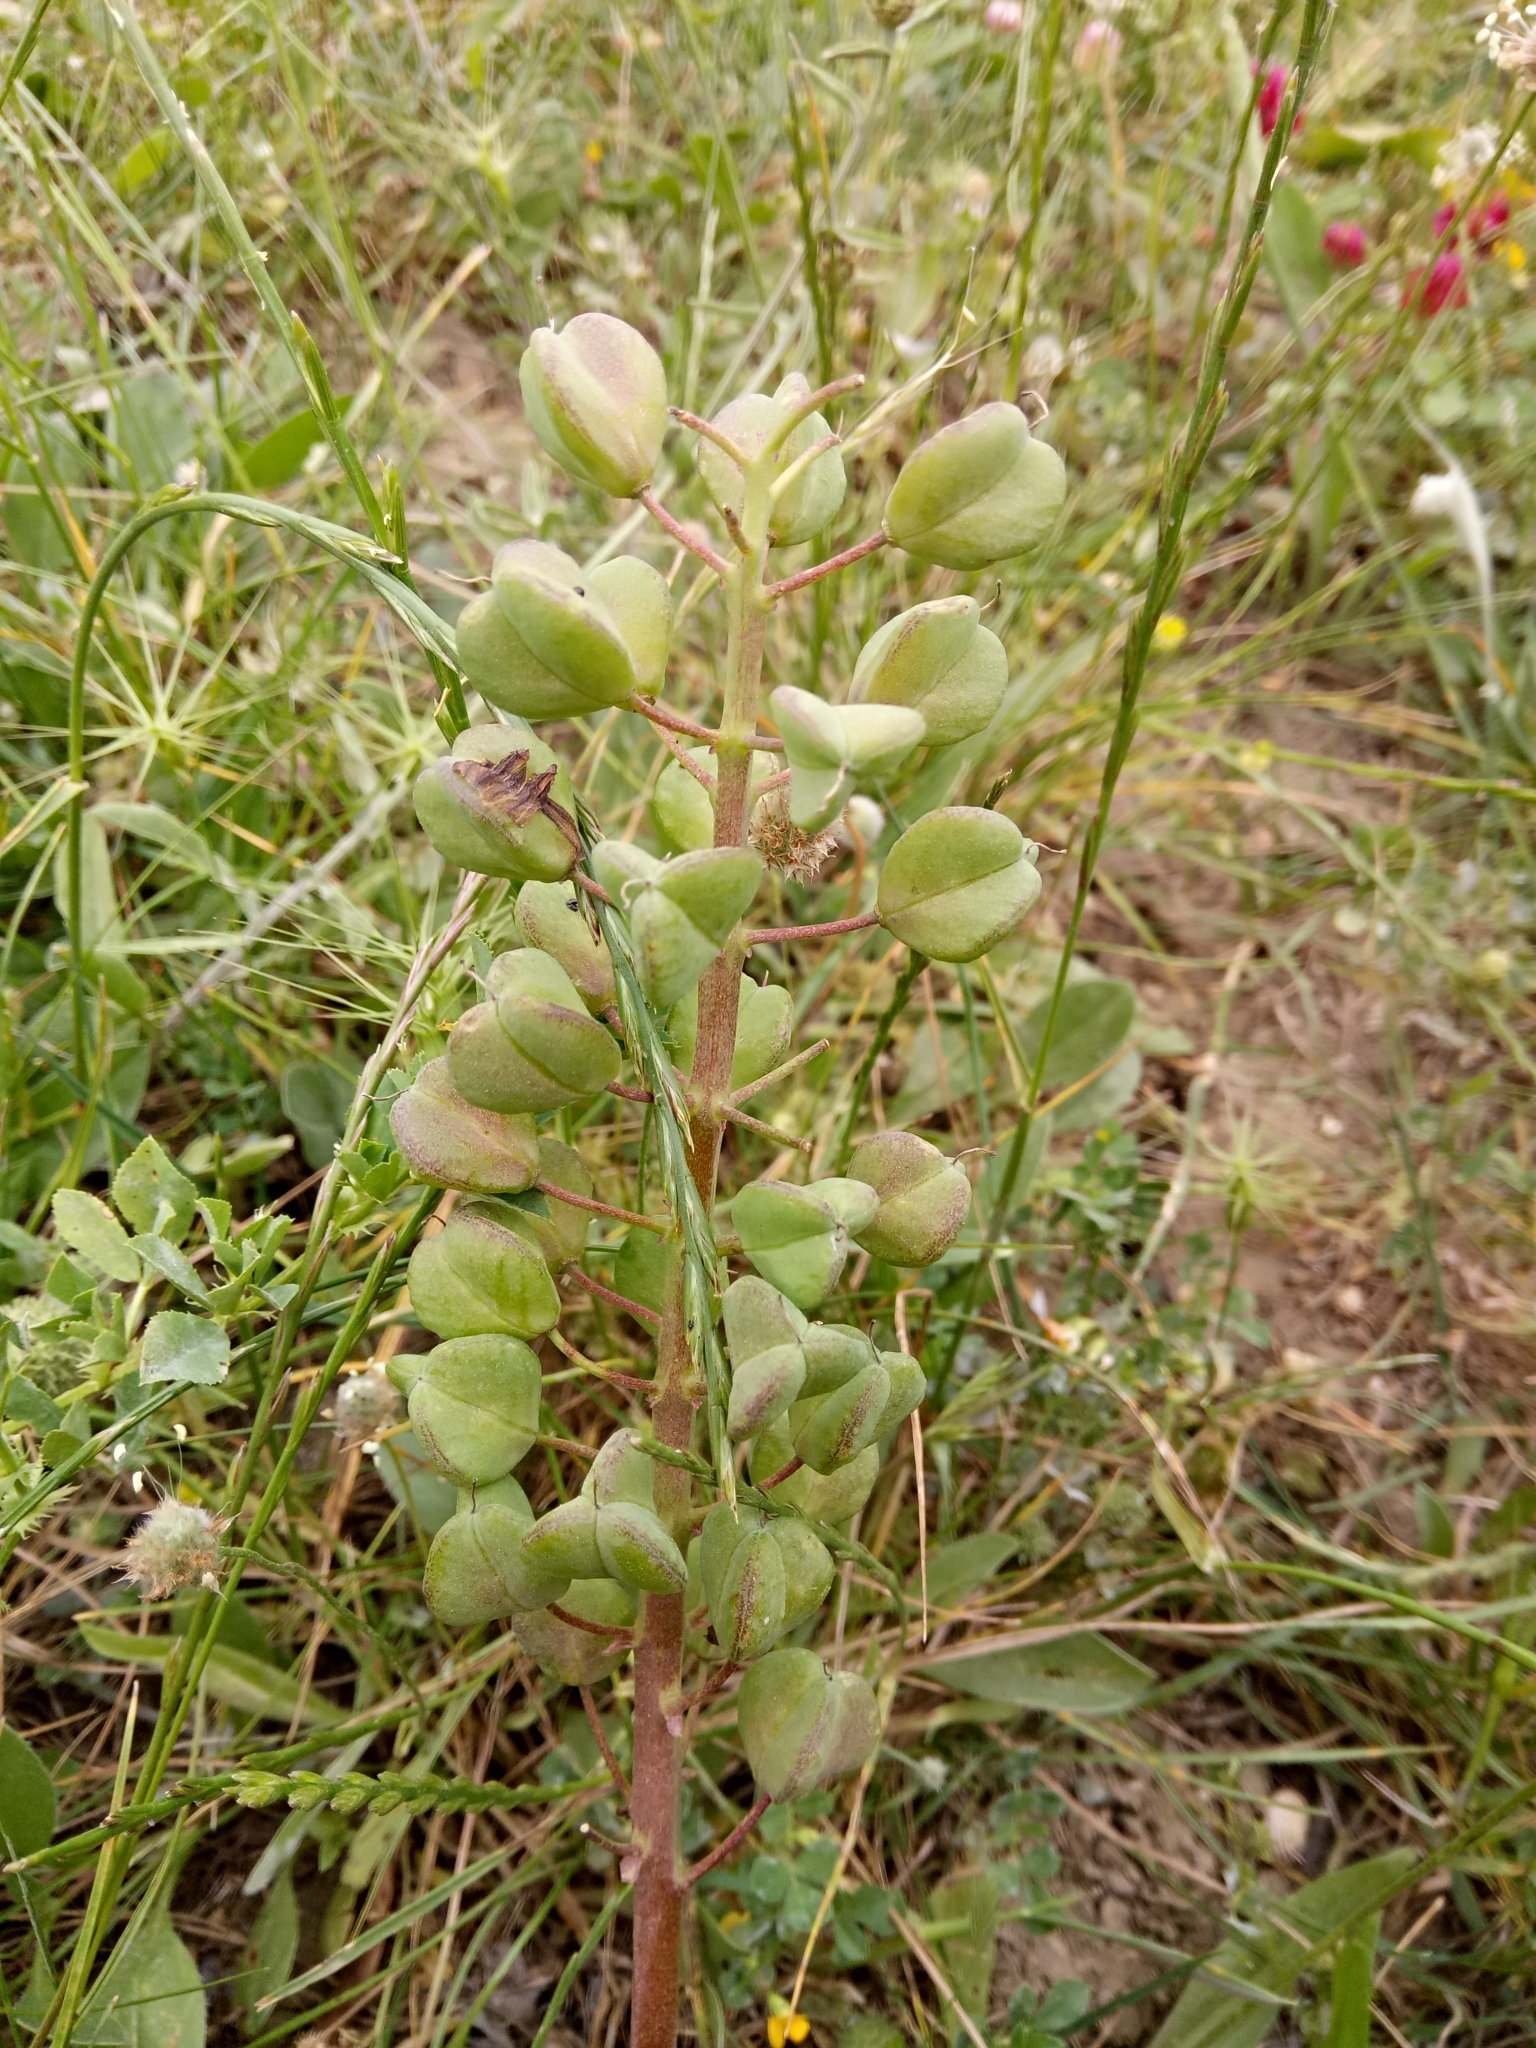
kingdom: Plantae
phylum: Tracheophyta
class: Liliopsida
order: Asparagales
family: Asparagaceae
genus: Bellevalia
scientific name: Bellevalia mauritanica
